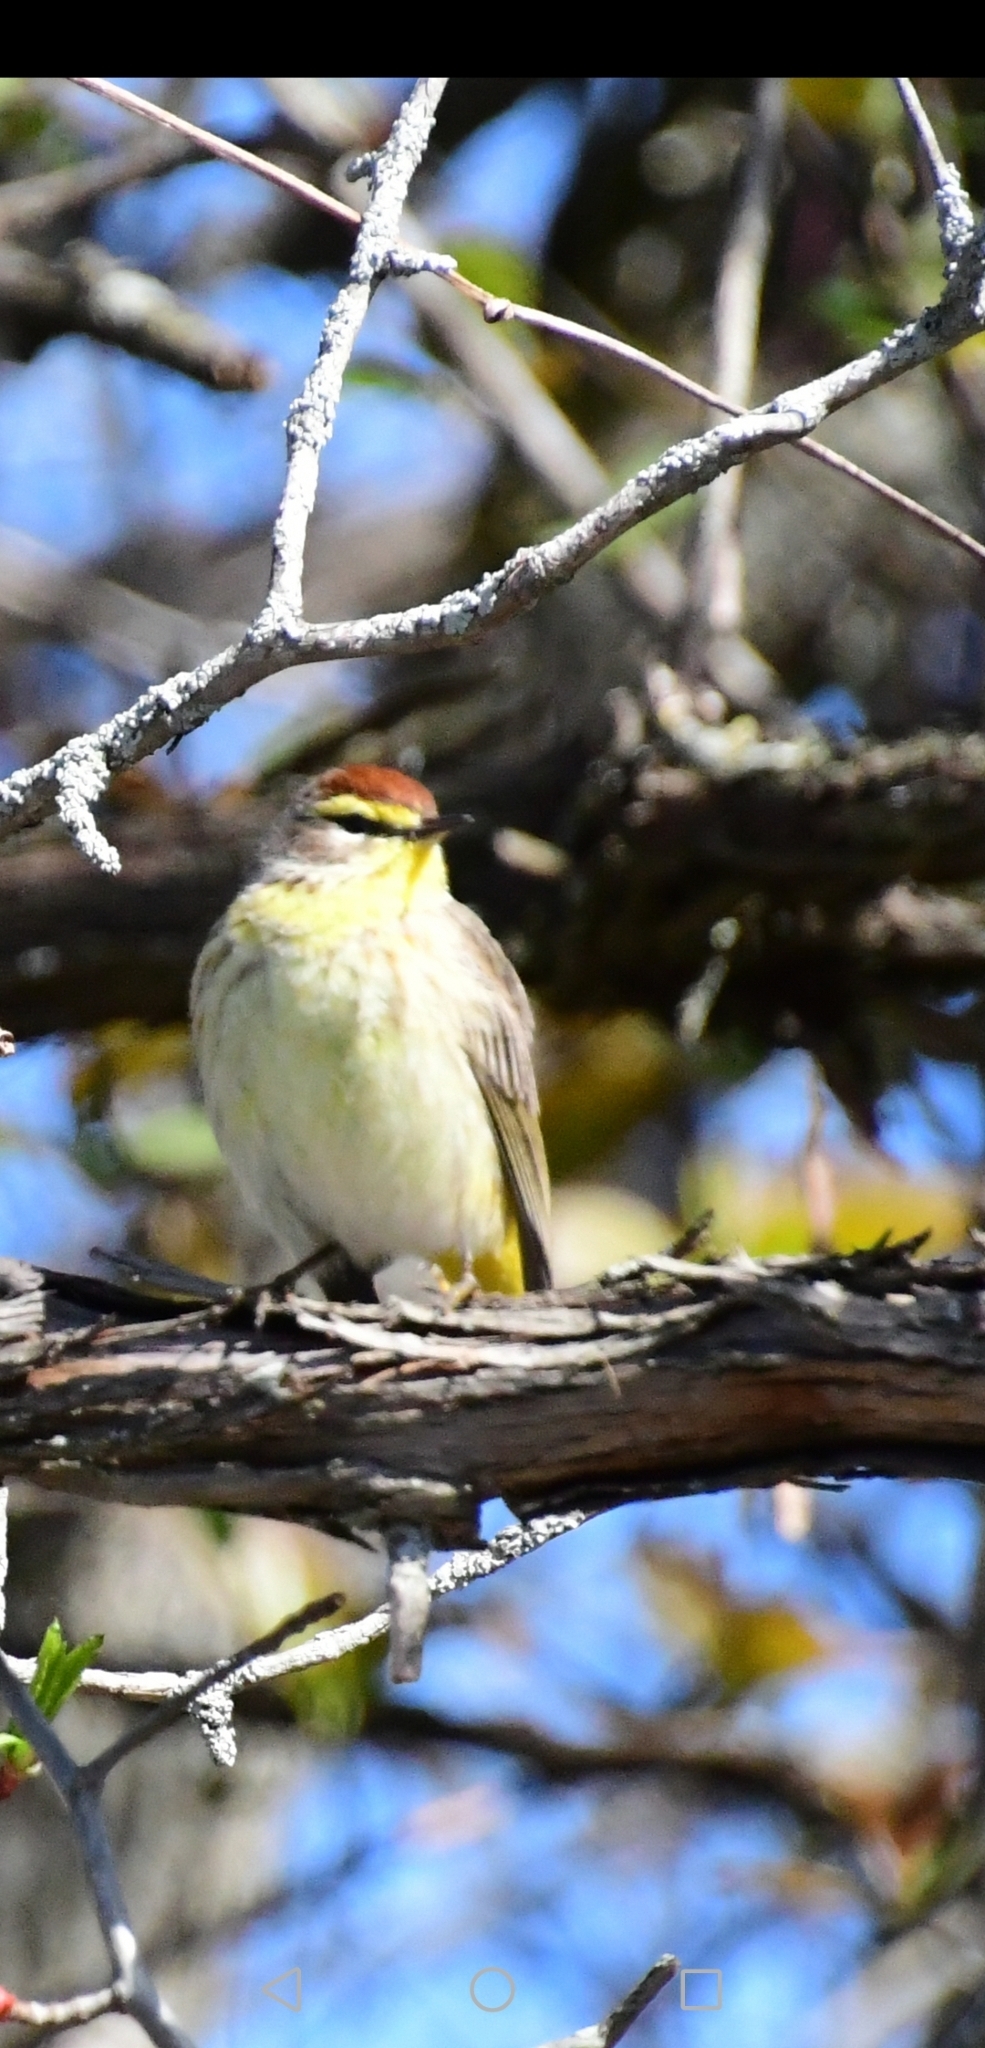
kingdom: Animalia
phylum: Chordata
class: Aves
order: Passeriformes
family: Parulidae
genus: Setophaga
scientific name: Setophaga palmarum
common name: Palm warbler
